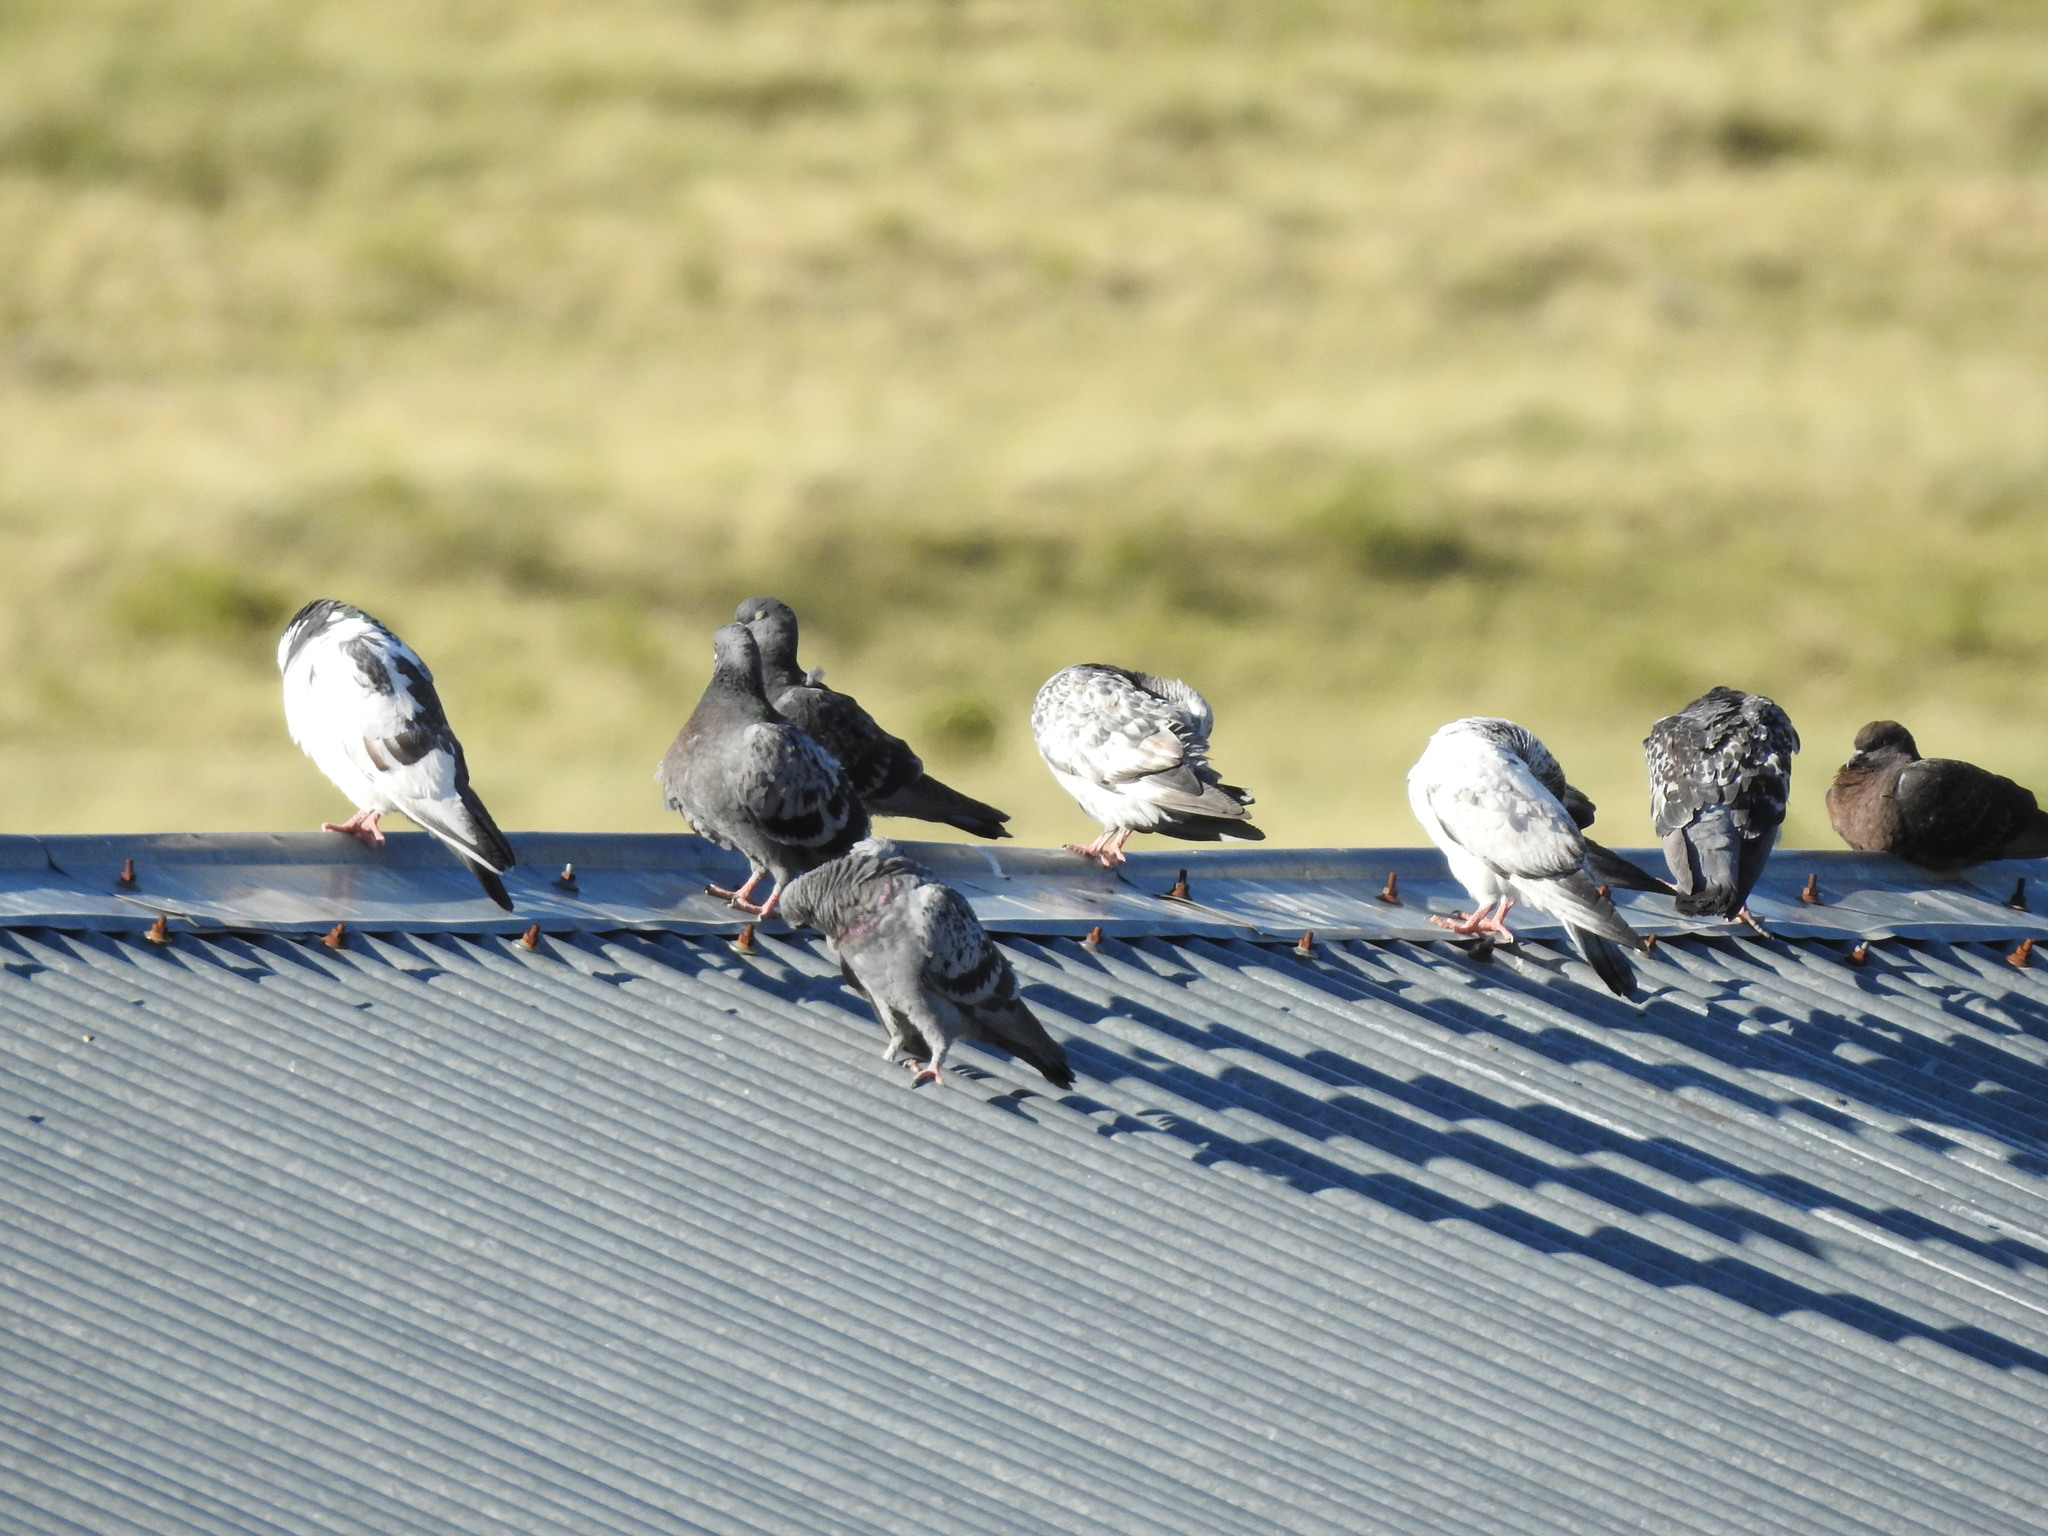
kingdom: Animalia
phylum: Chordata
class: Aves
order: Columbiformes
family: Columbidae
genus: Columba
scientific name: Columba livia
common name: Rock pigeon
